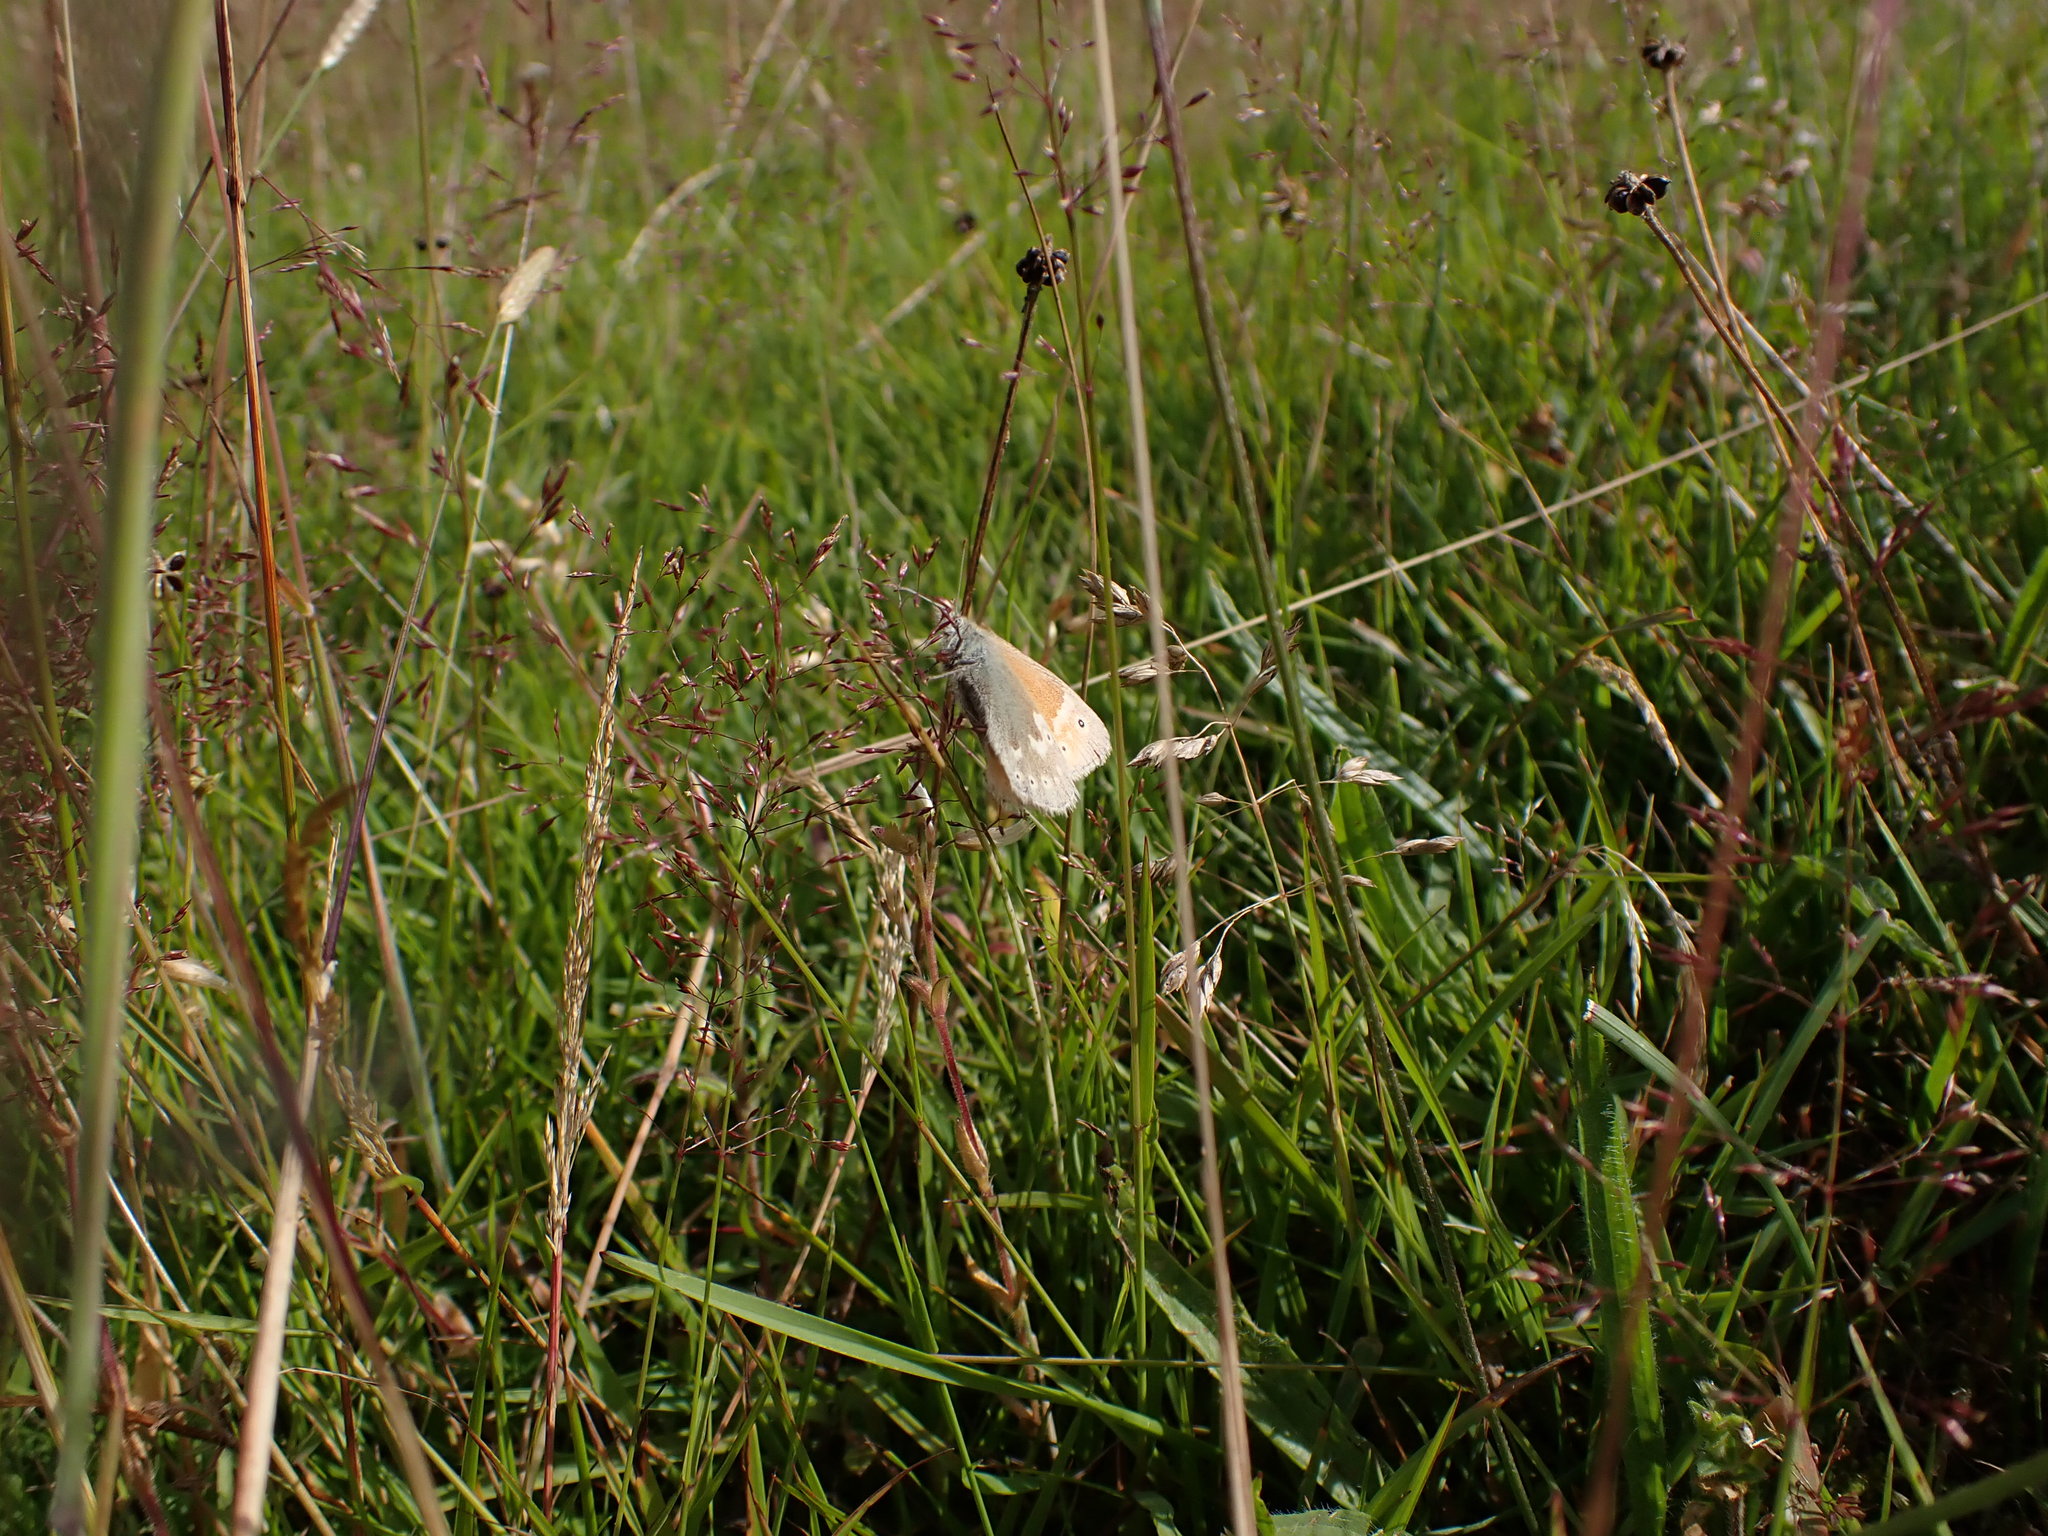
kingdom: Animalia
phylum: Arthropoda
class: Insecta
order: Lepidoptera
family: Nymphalidae
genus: Coenonympha
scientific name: Coenonympha pamphilus
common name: Small heath
